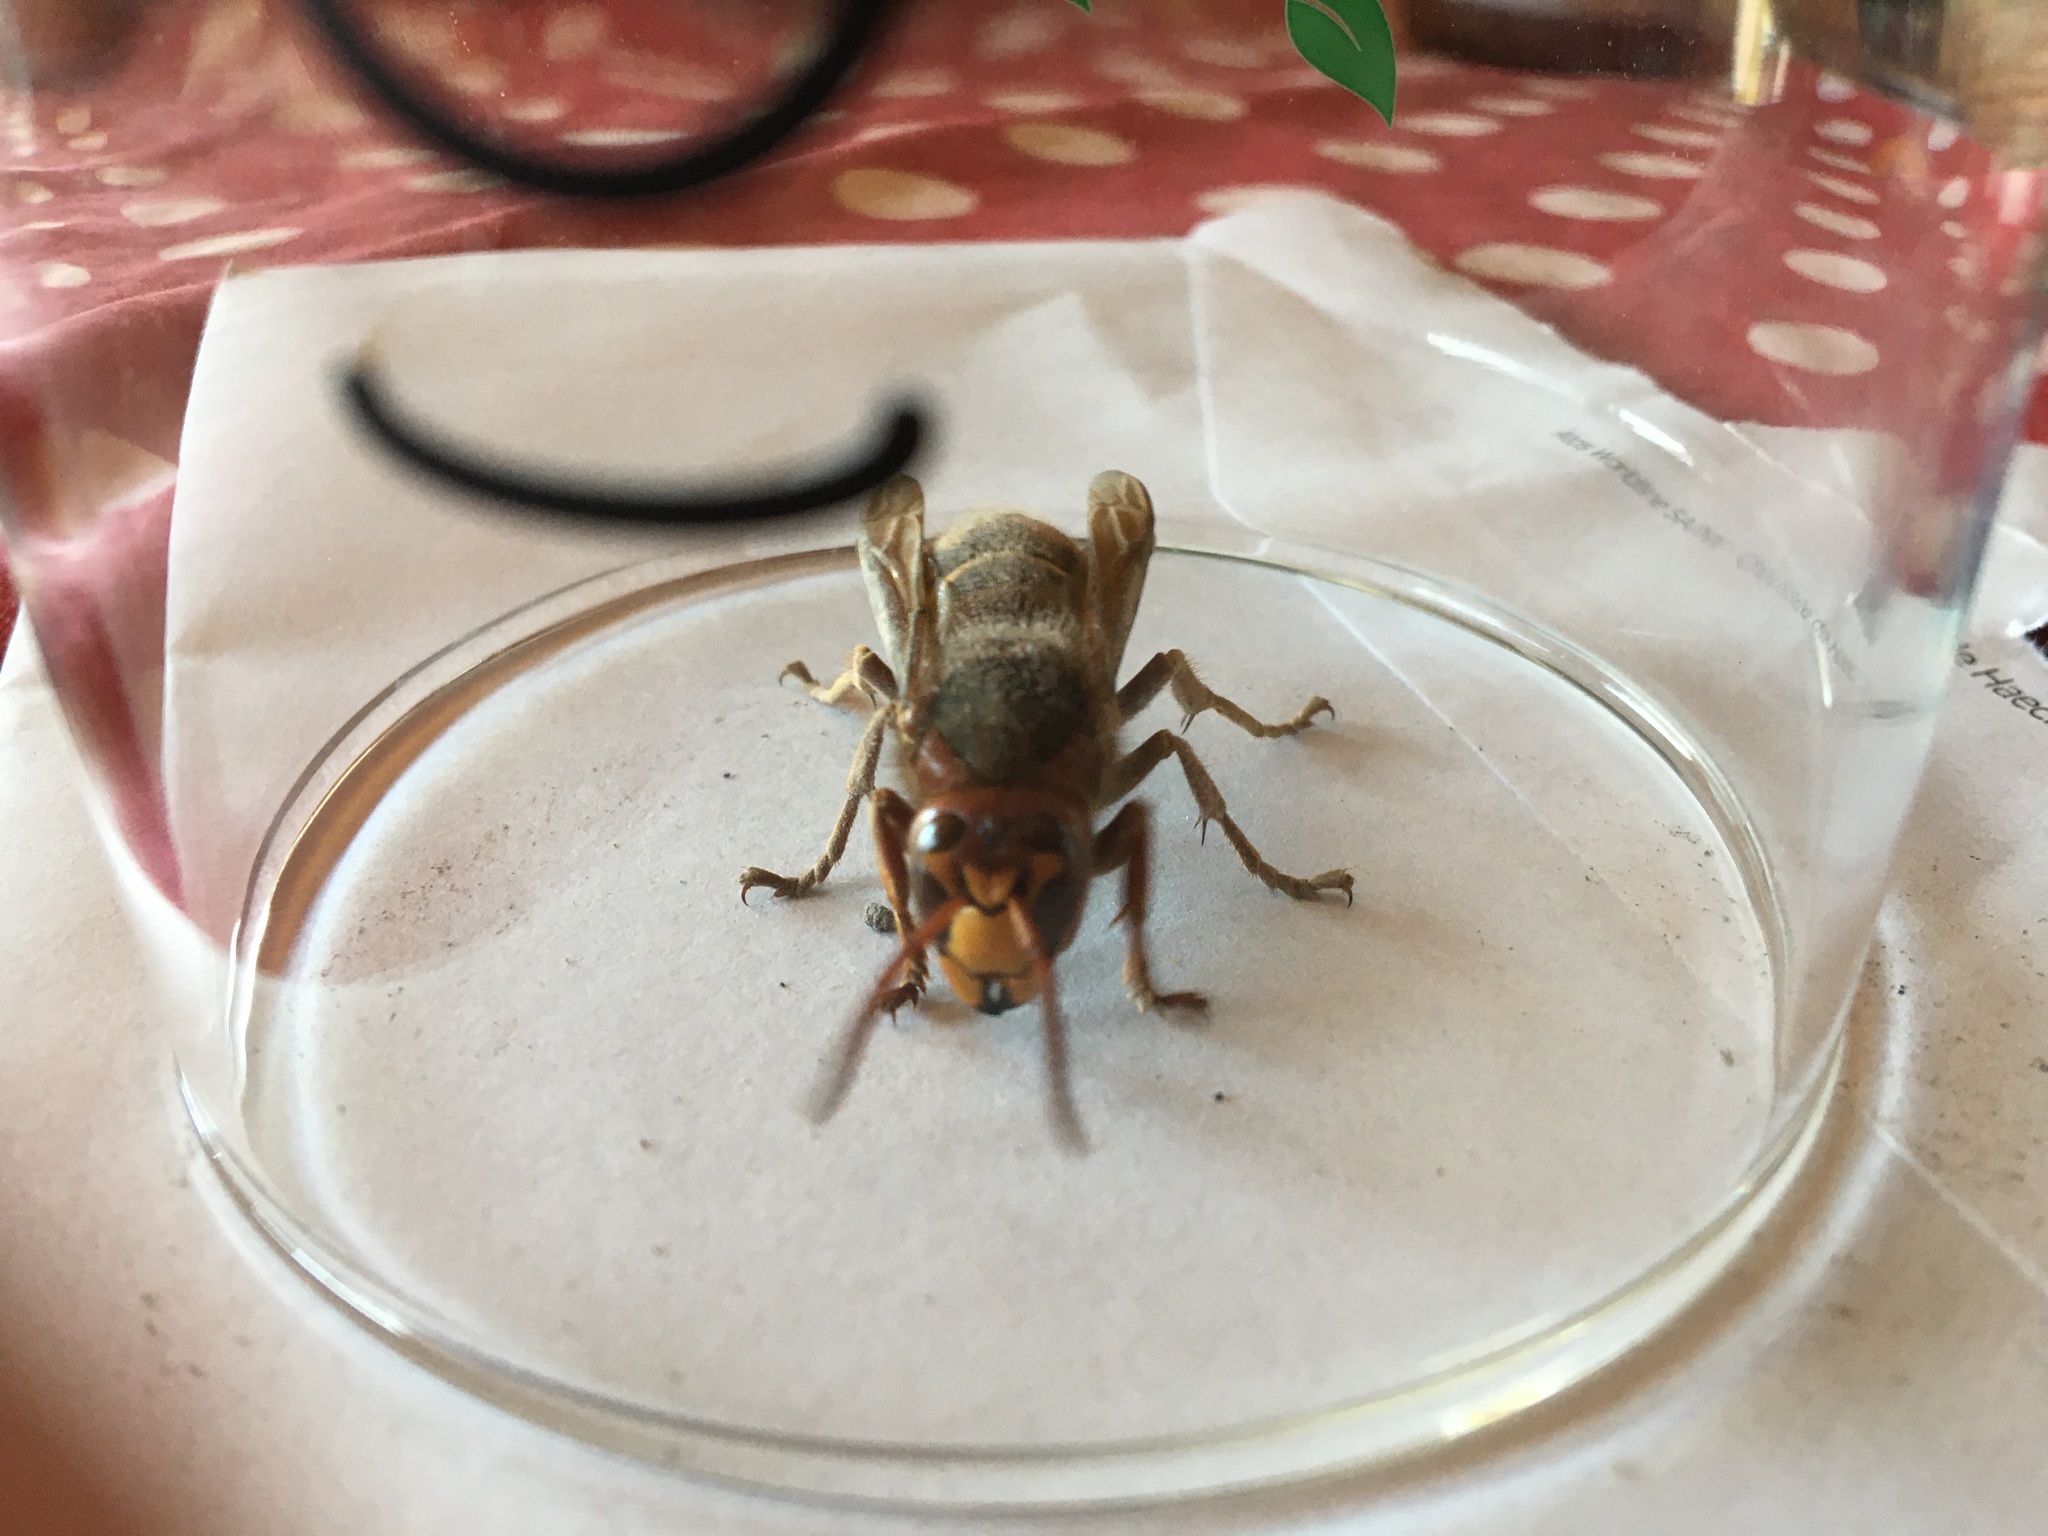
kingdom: Animalia
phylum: Arthropoda
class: Insecta
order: Hymenoptera
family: Vespidae
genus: Vespa
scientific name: Vespa crabro
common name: Hornet
